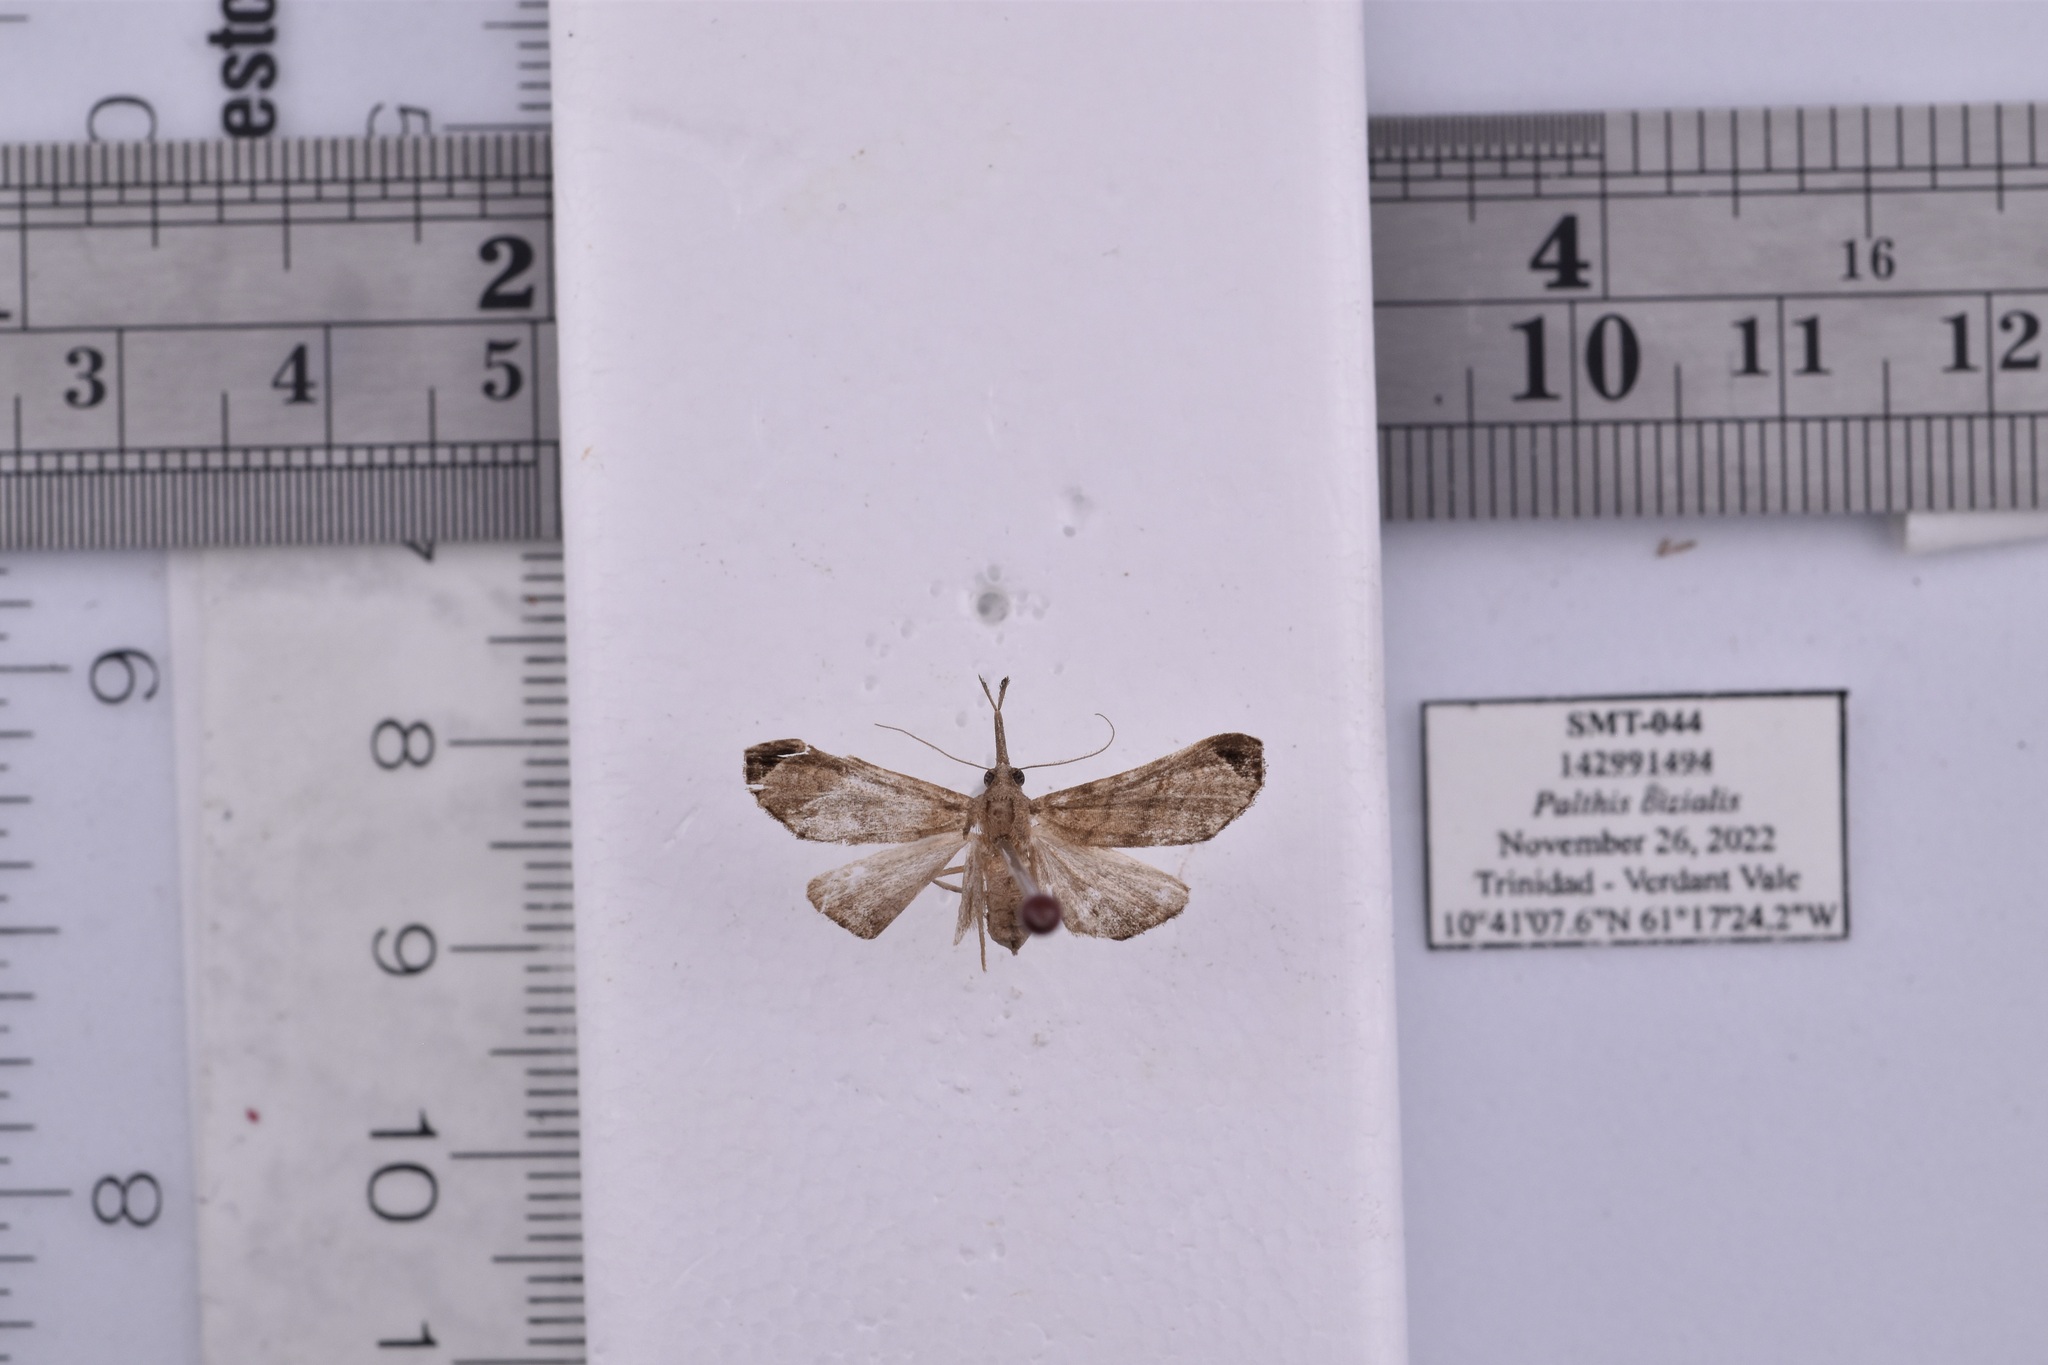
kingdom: Animalia
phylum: Arthropoda
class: Insecta
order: Lepidoptera
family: Erebidae
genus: Palthis
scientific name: Palthis bizialis
